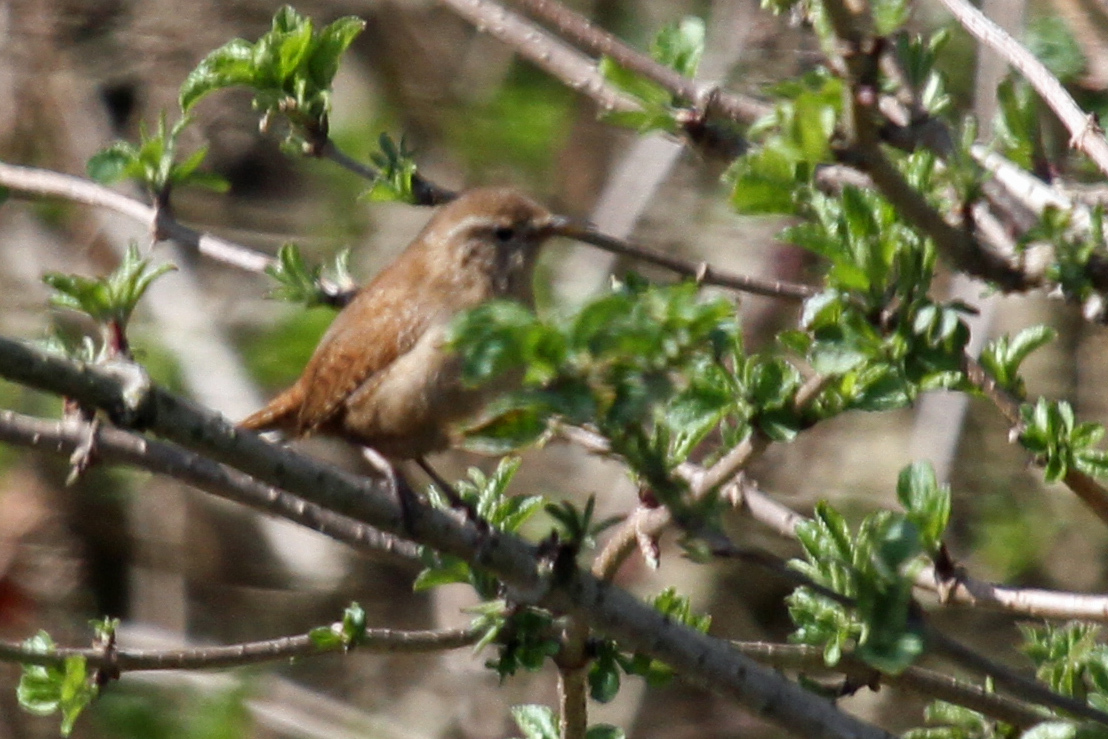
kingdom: Animalia
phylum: Chordata
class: Aves
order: Passeriformes
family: Troglodytidae
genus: Troglodytes
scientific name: Troglodytes troglodytes
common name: Eurasian wren
